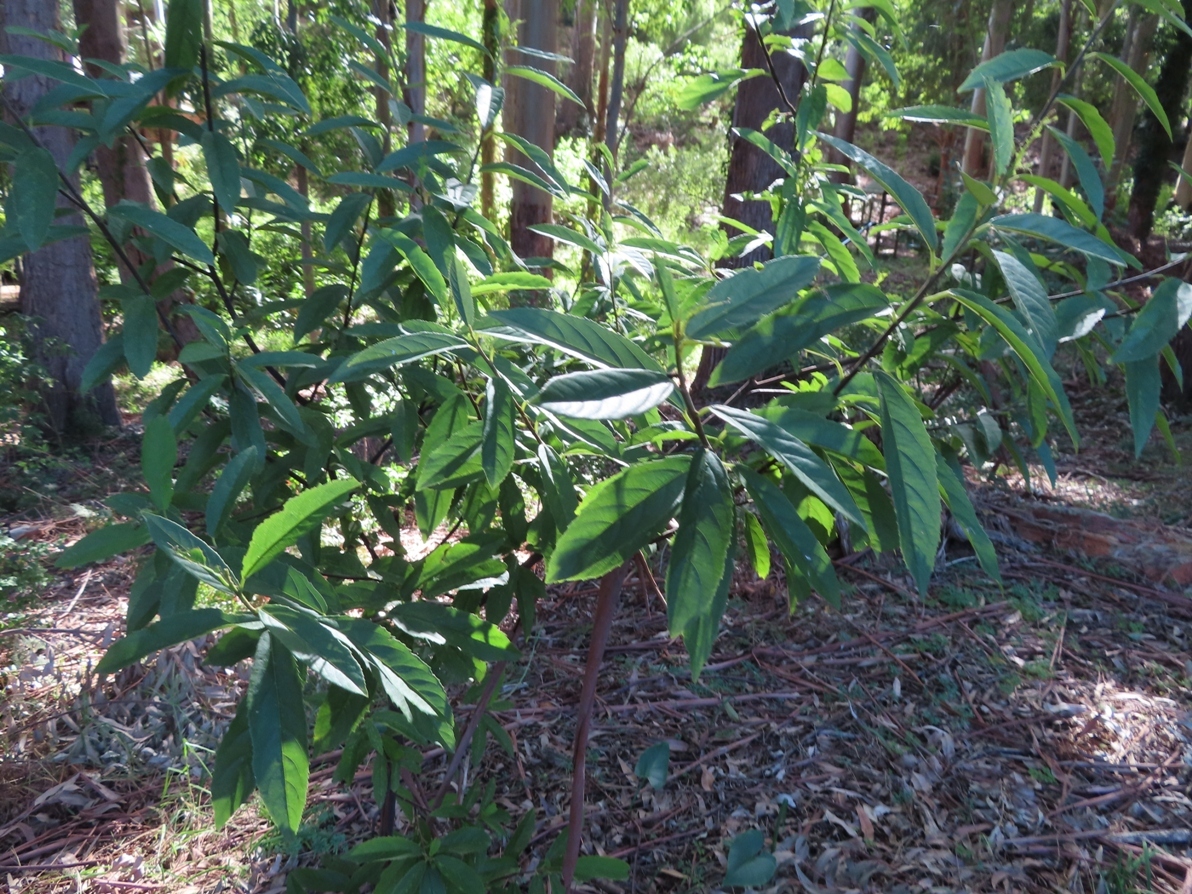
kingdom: Plantae
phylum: Tracheophyta
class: Magnoliopsida
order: Malpighiales
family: Achariaceae
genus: Kiggelaria
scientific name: Kiggelaria africana
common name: Wild peach
